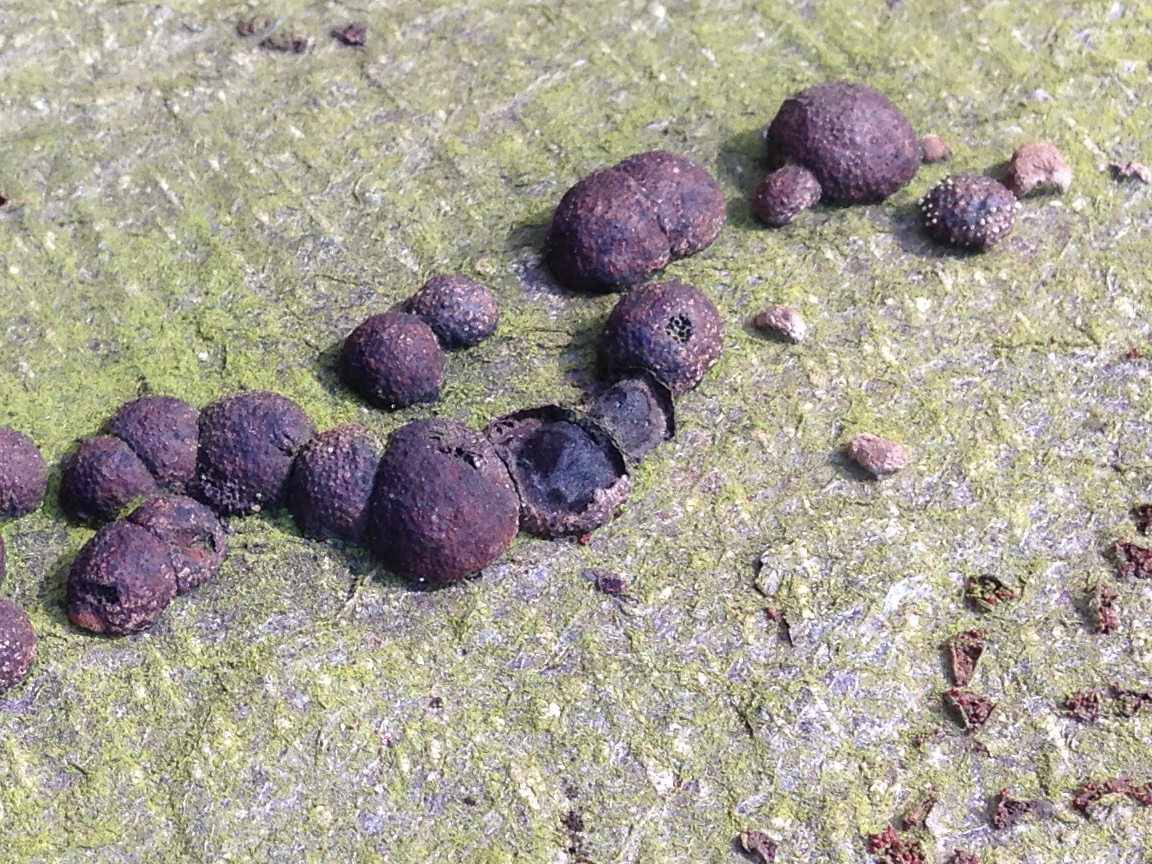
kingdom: Fungi
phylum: Ascomycota
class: Sordariomycetes
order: Xylariales
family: Hypoxylaceae
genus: Hypoxylon
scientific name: Hypoxylon fragiforme
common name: Beech woodwart
